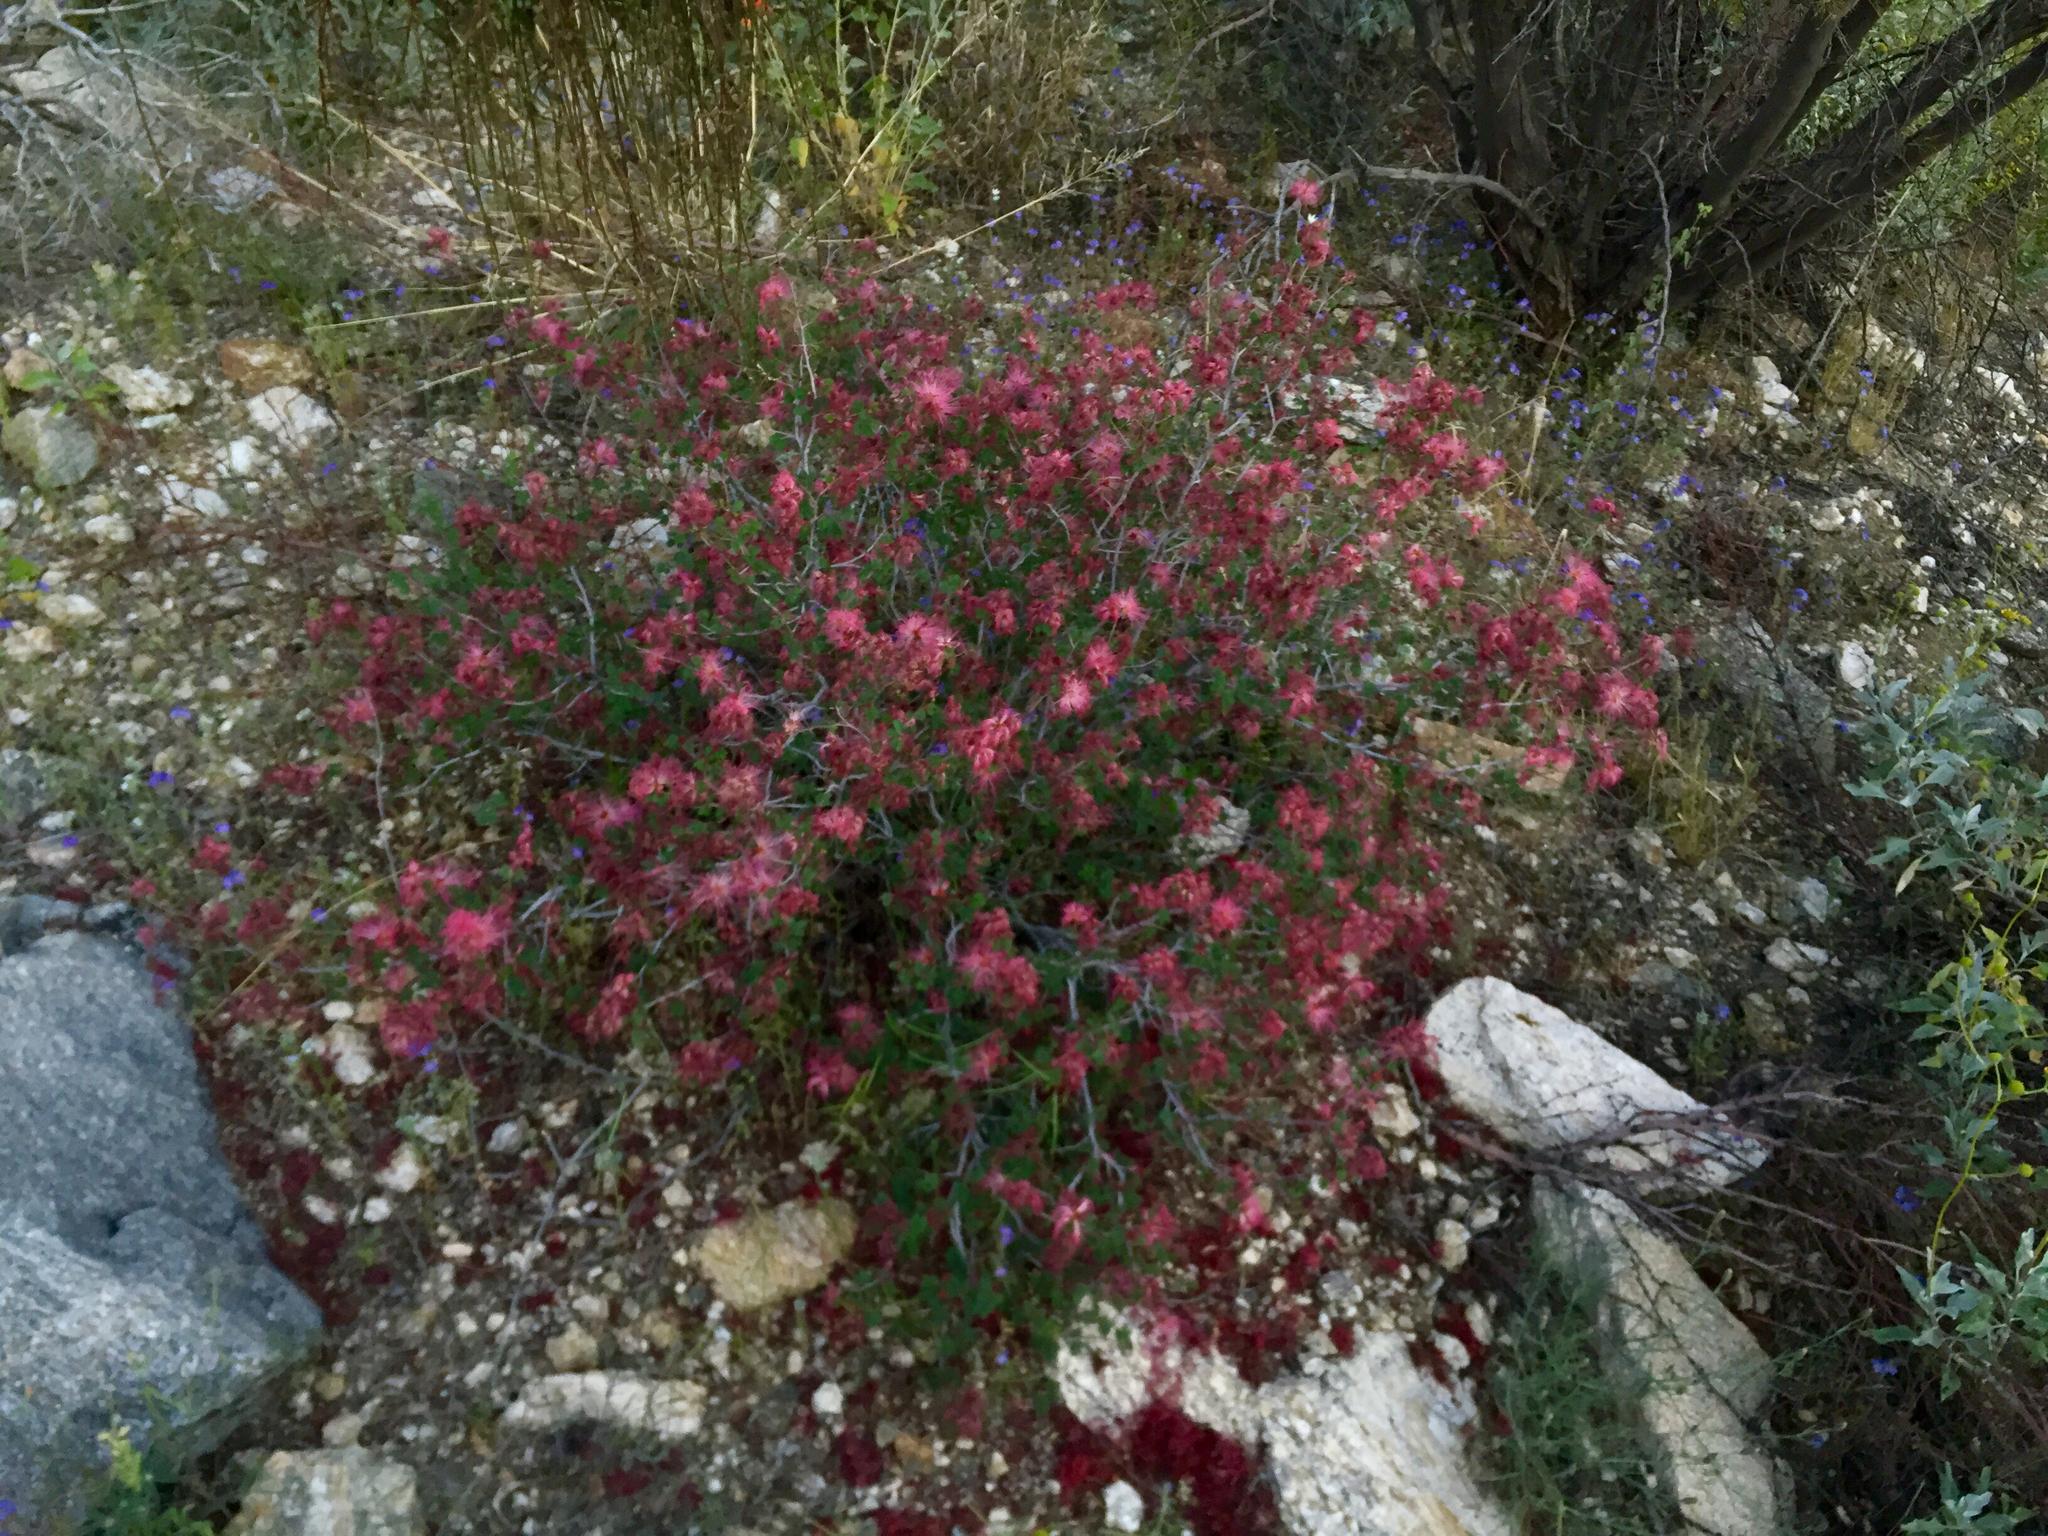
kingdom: Plantae
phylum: Tracheophyta
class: Magnoliopsida
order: Fabales
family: Fabaceae
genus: Calliandra
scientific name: Calliandra eriophylla
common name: Fairy-duster
